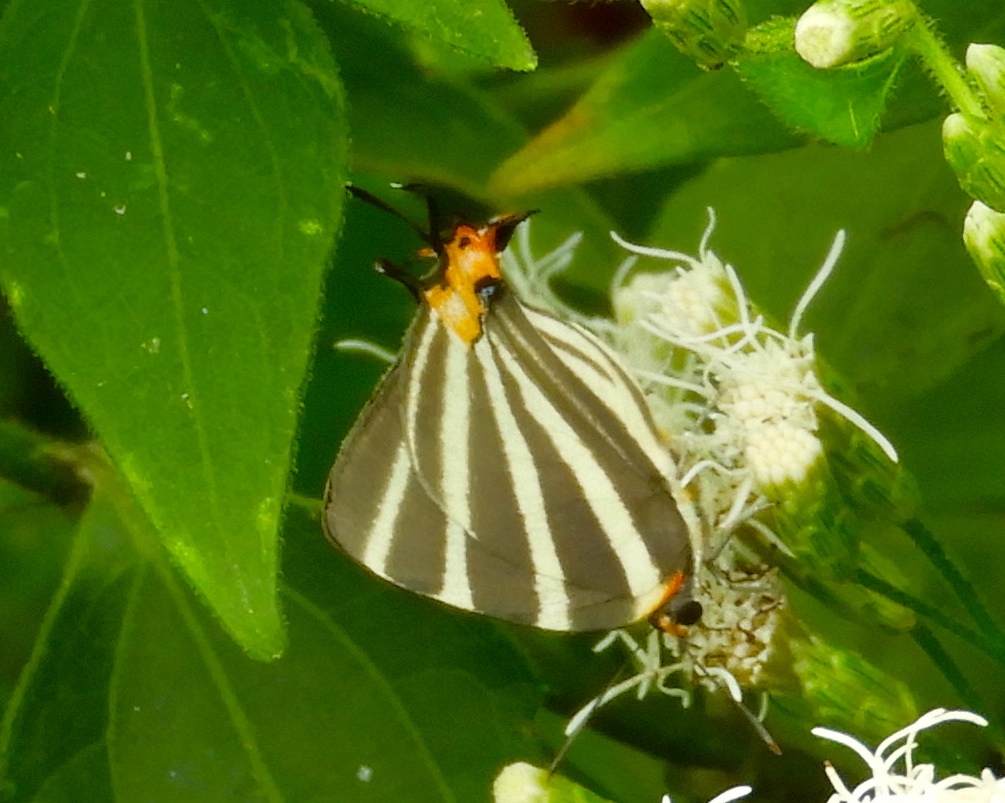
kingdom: Animalia
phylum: Arthropoda
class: Insecta
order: Lepidoptera
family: Lycaenidae
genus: Thecla
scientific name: Thecla bathildis
